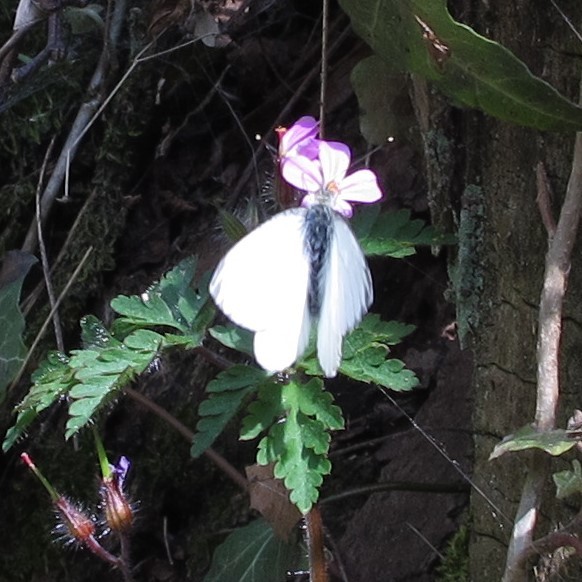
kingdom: Animalia
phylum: Arthropoda
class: Insecta
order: Lepidoptera
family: Pieridae
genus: Pieris
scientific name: Pieris napi
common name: Green-veined white
